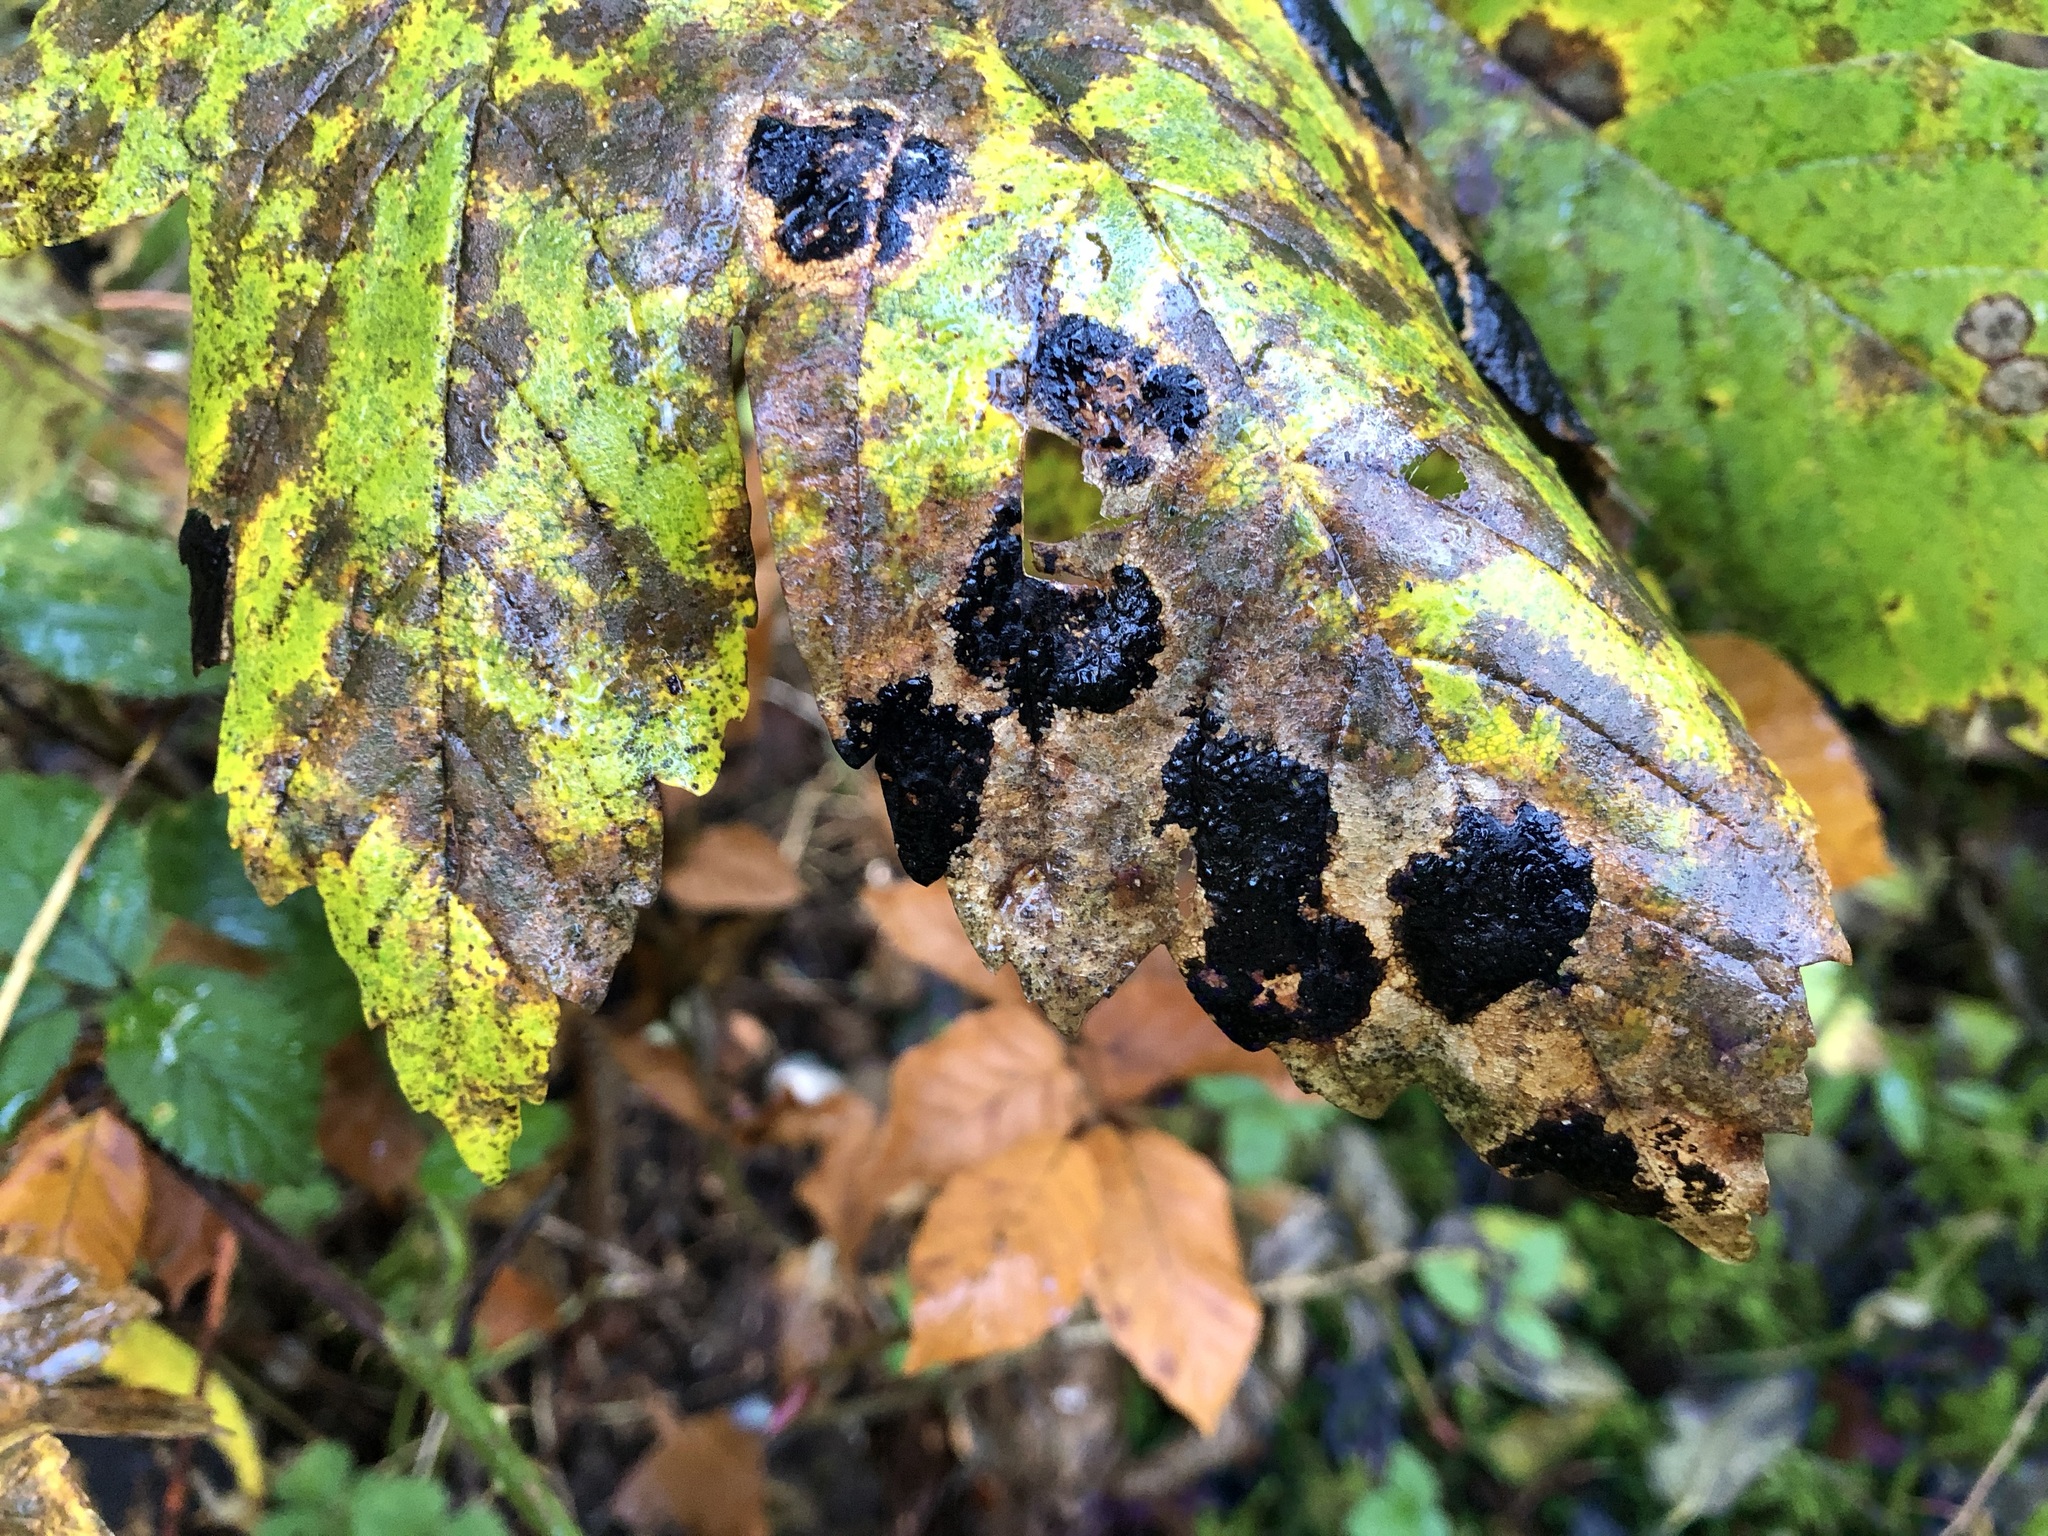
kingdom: Fungi
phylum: Ascomycota
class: Leotiomycetes
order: Rhytismatales
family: Rhytismataceae
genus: Rhytisma
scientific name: Rhytisma acerinum
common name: European tar spot
